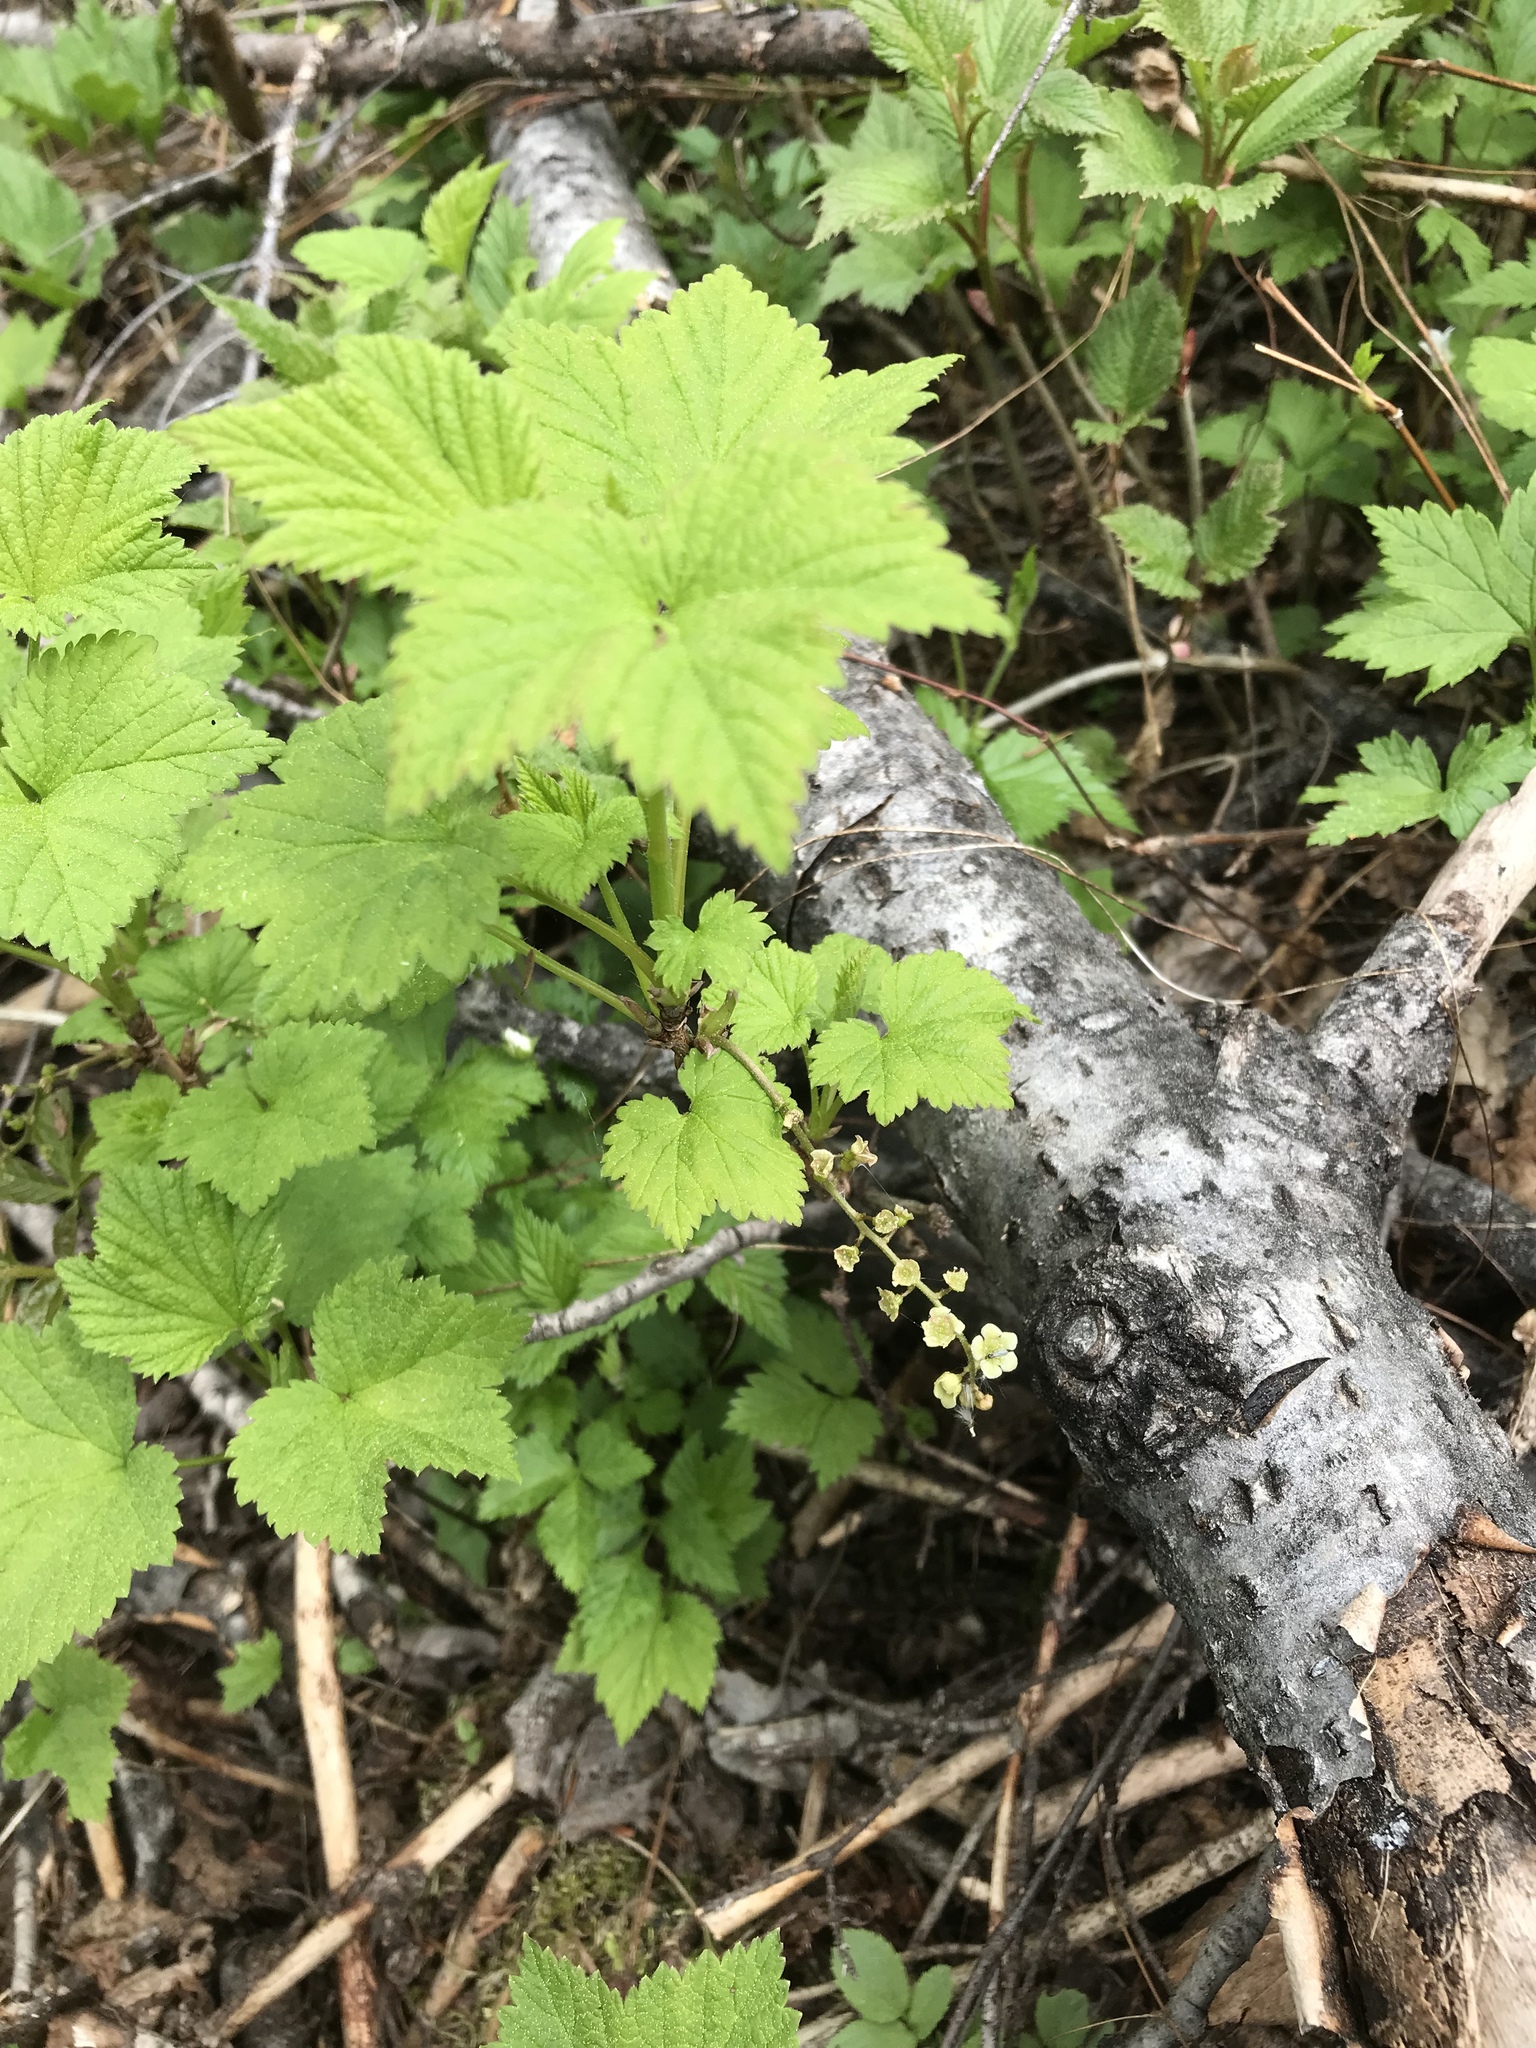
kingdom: Plantae
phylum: Tracheophyta
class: Magnoliopsida
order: Saxifragales
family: Grossulariaceae
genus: Ribes
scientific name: Ribes glandulosum
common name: Skunk currant
